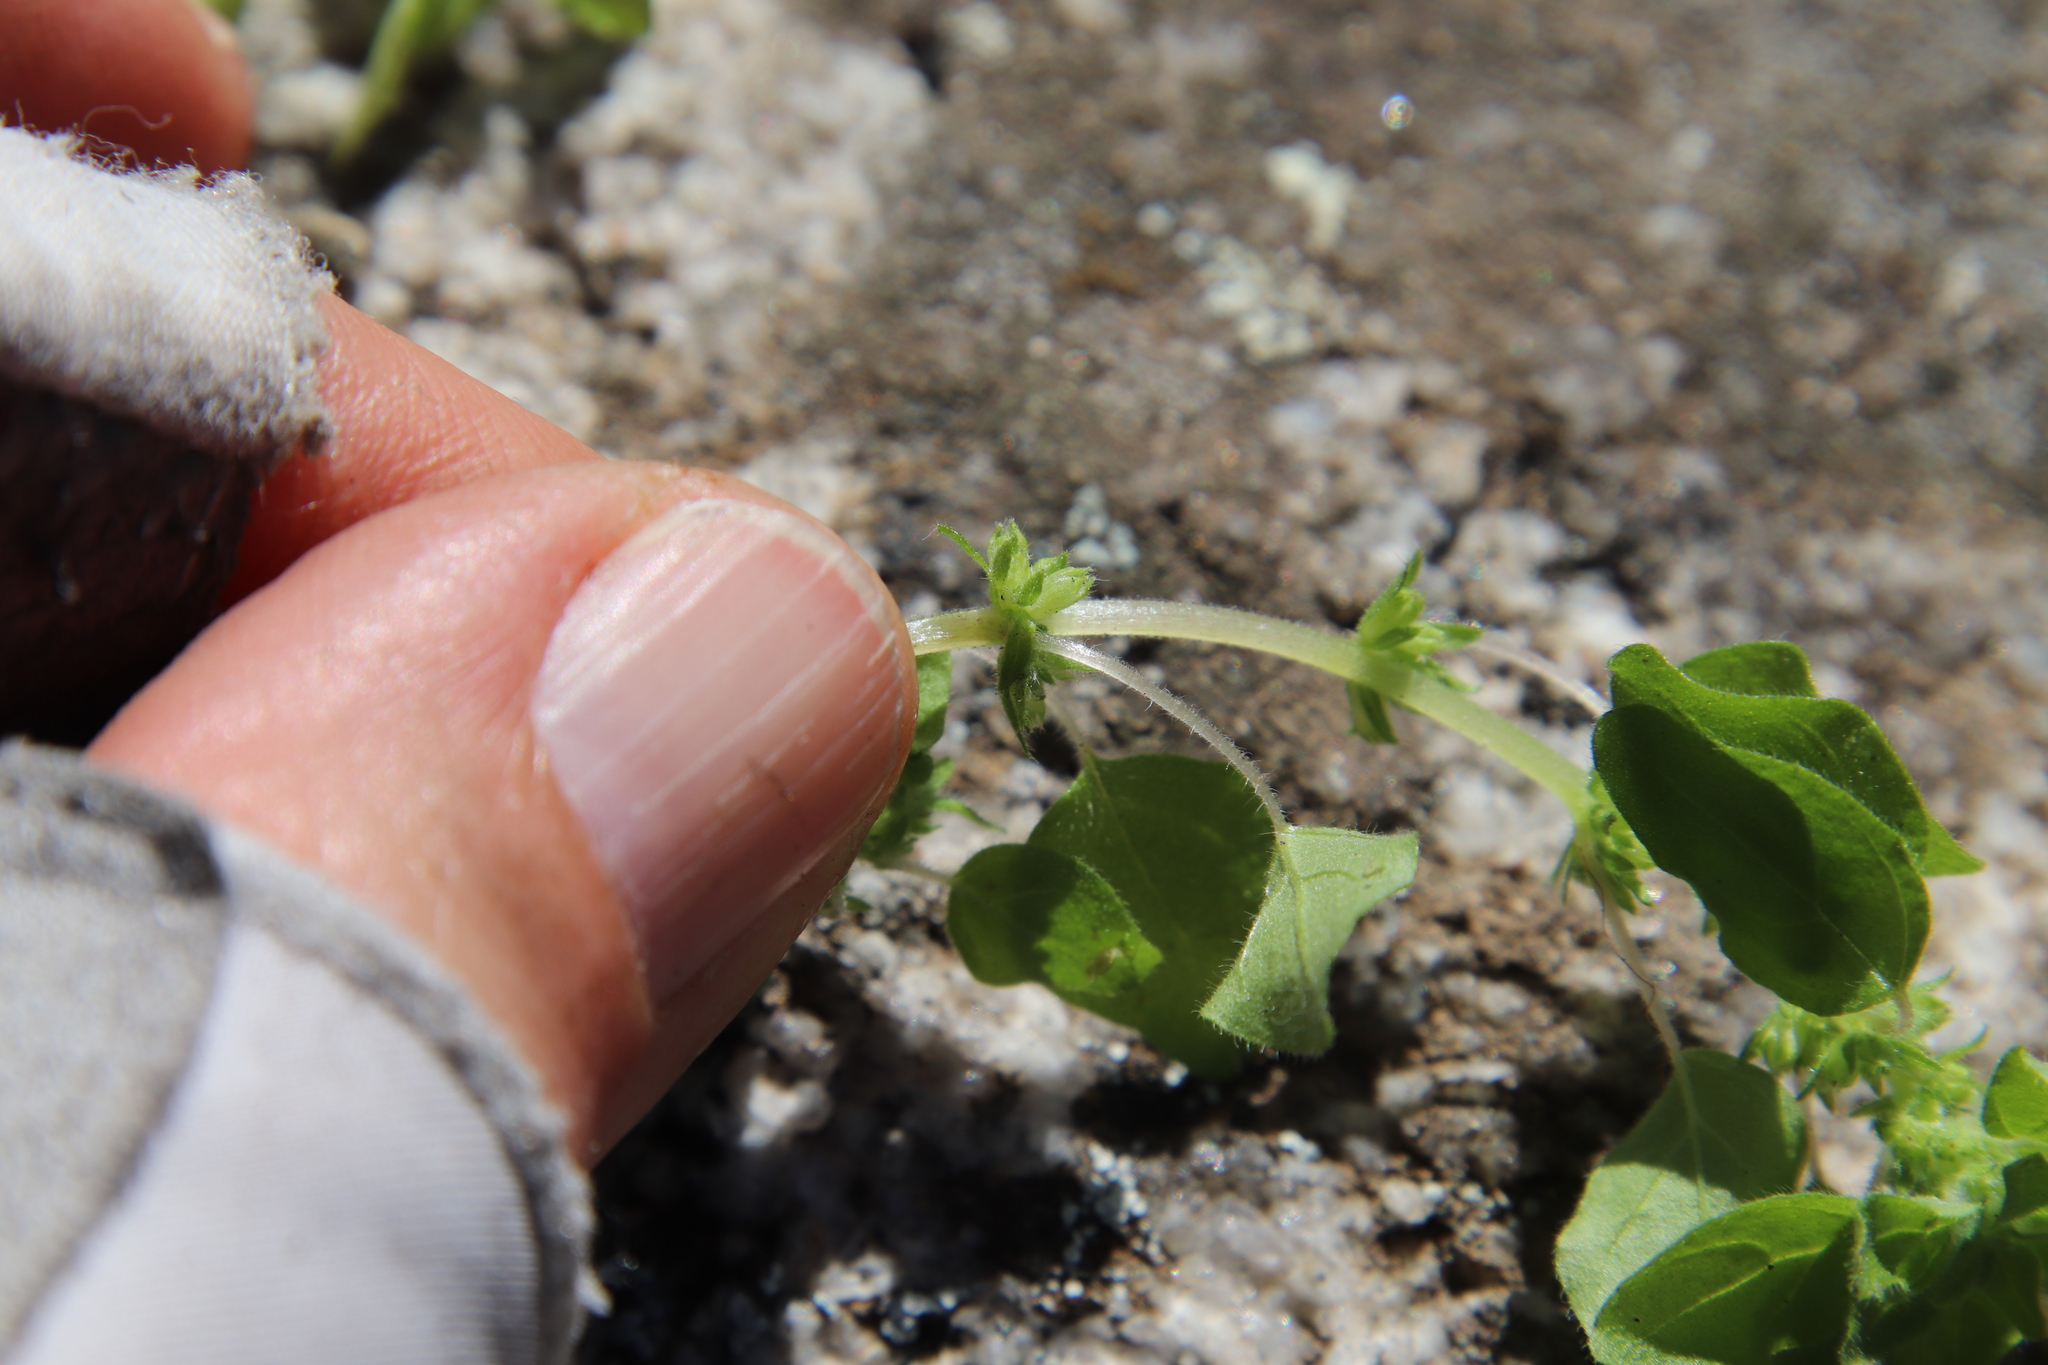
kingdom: Plantae
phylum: Tracheophyta
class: Magnoliopsida
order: Rosales
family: Urticaceae
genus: Parietaria
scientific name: Parietaria hespera
